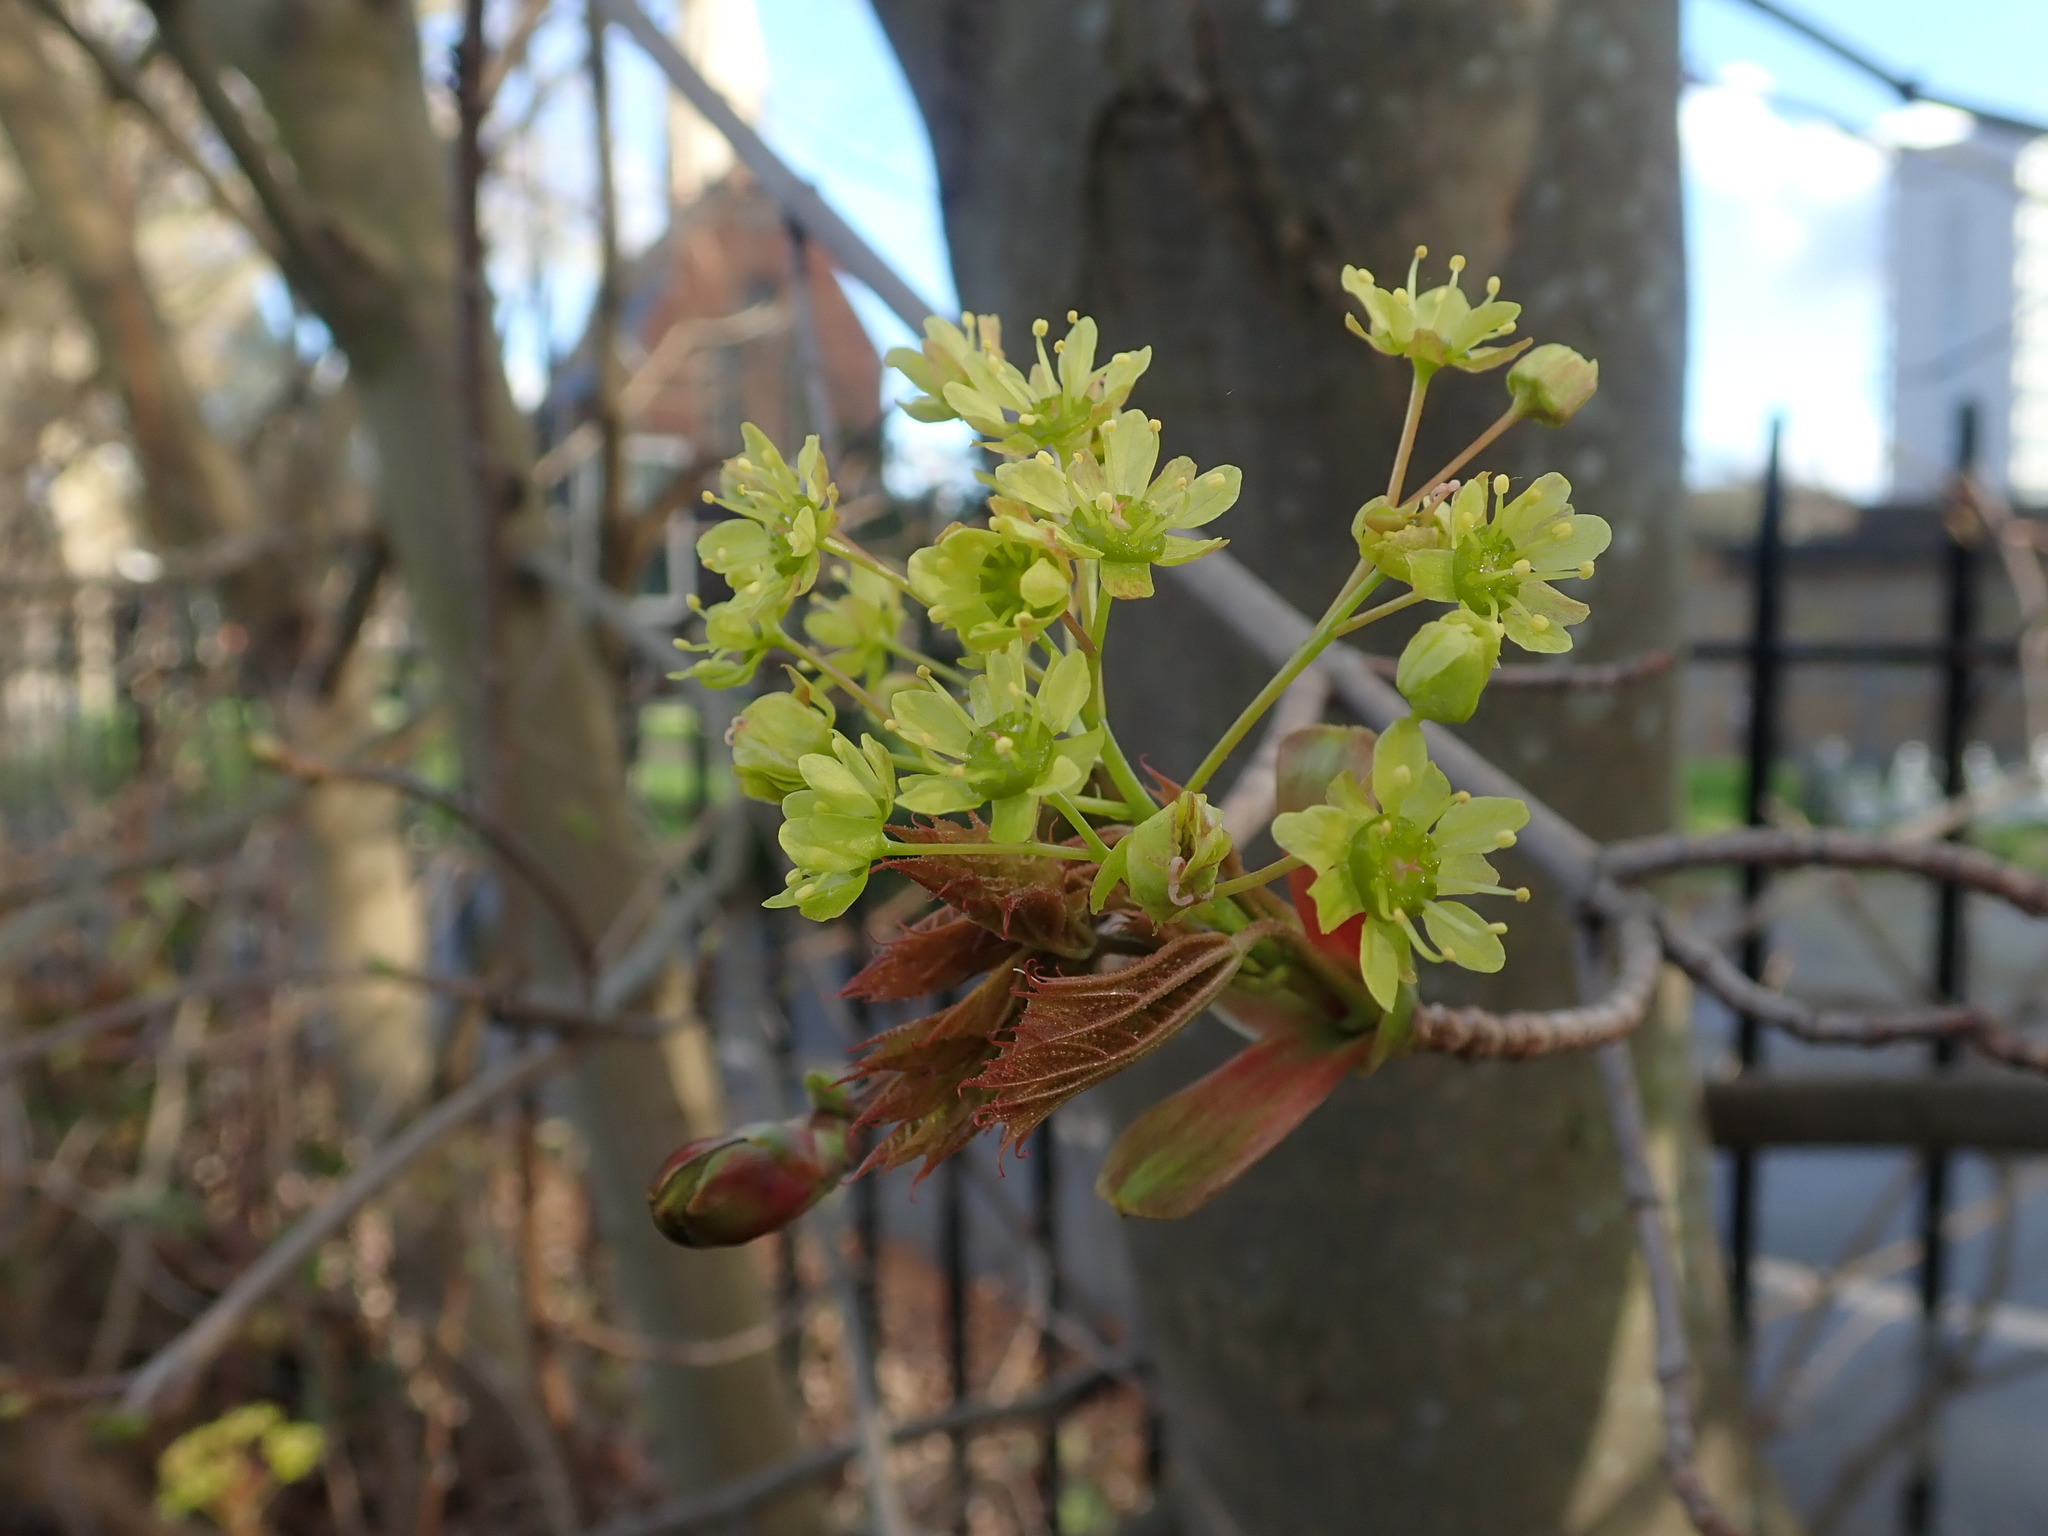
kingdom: Plantae
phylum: Tracheophyta
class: Magnoliopsida
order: Sapindales
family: Sapindaceae
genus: Acer
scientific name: Acer platanoides
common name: Norway maple
